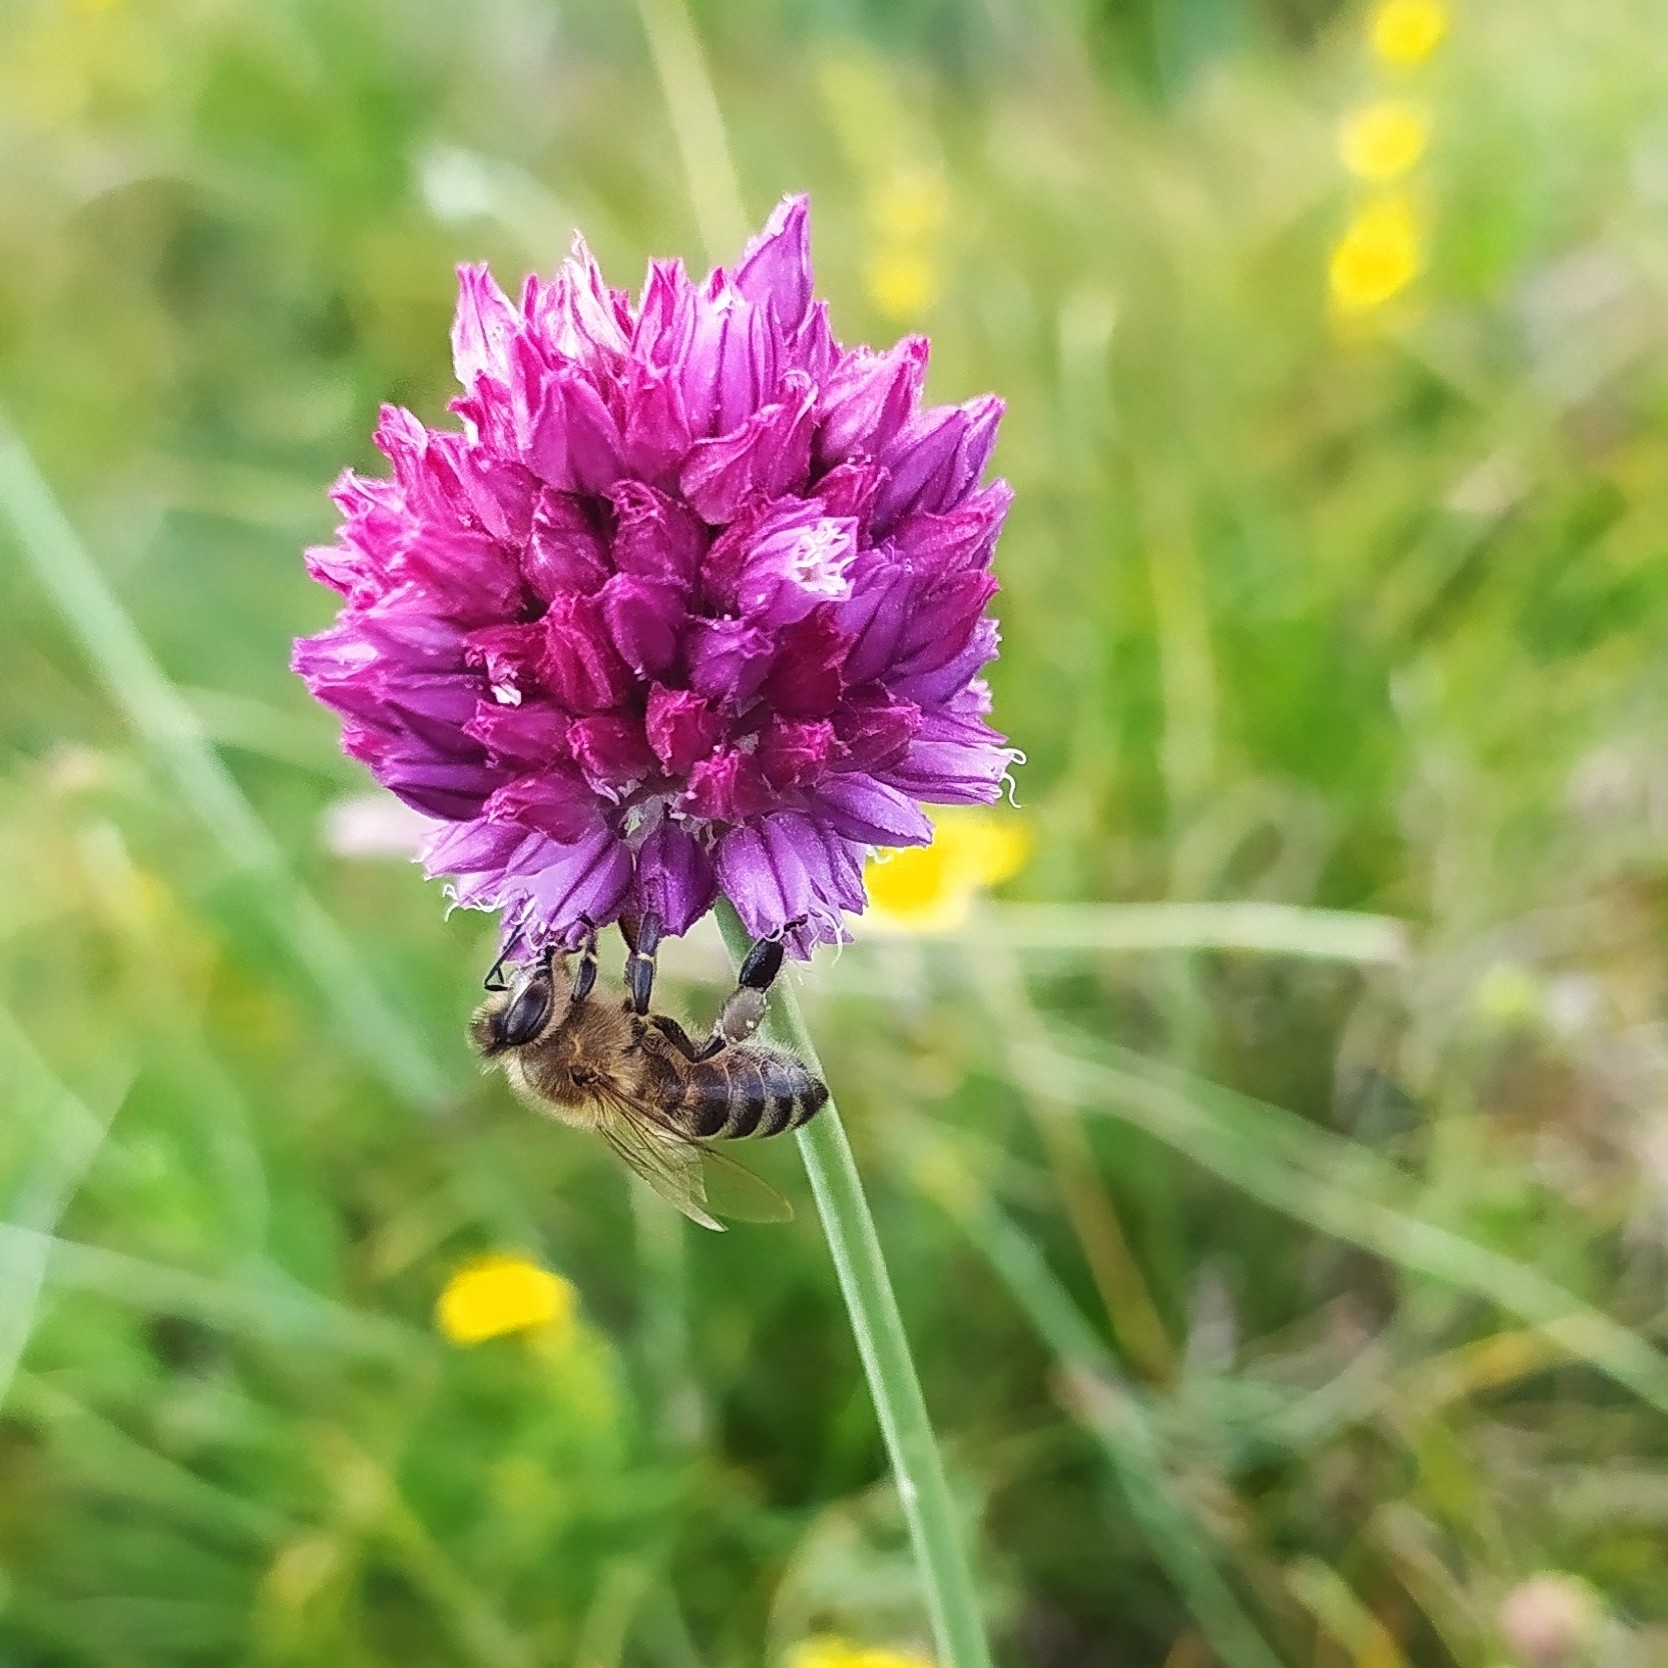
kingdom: Animalia
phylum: Arthropoda
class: Insecta
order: Hymenoptera
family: Apidae
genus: Apis
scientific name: Apis mellifera
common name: Honey bee
